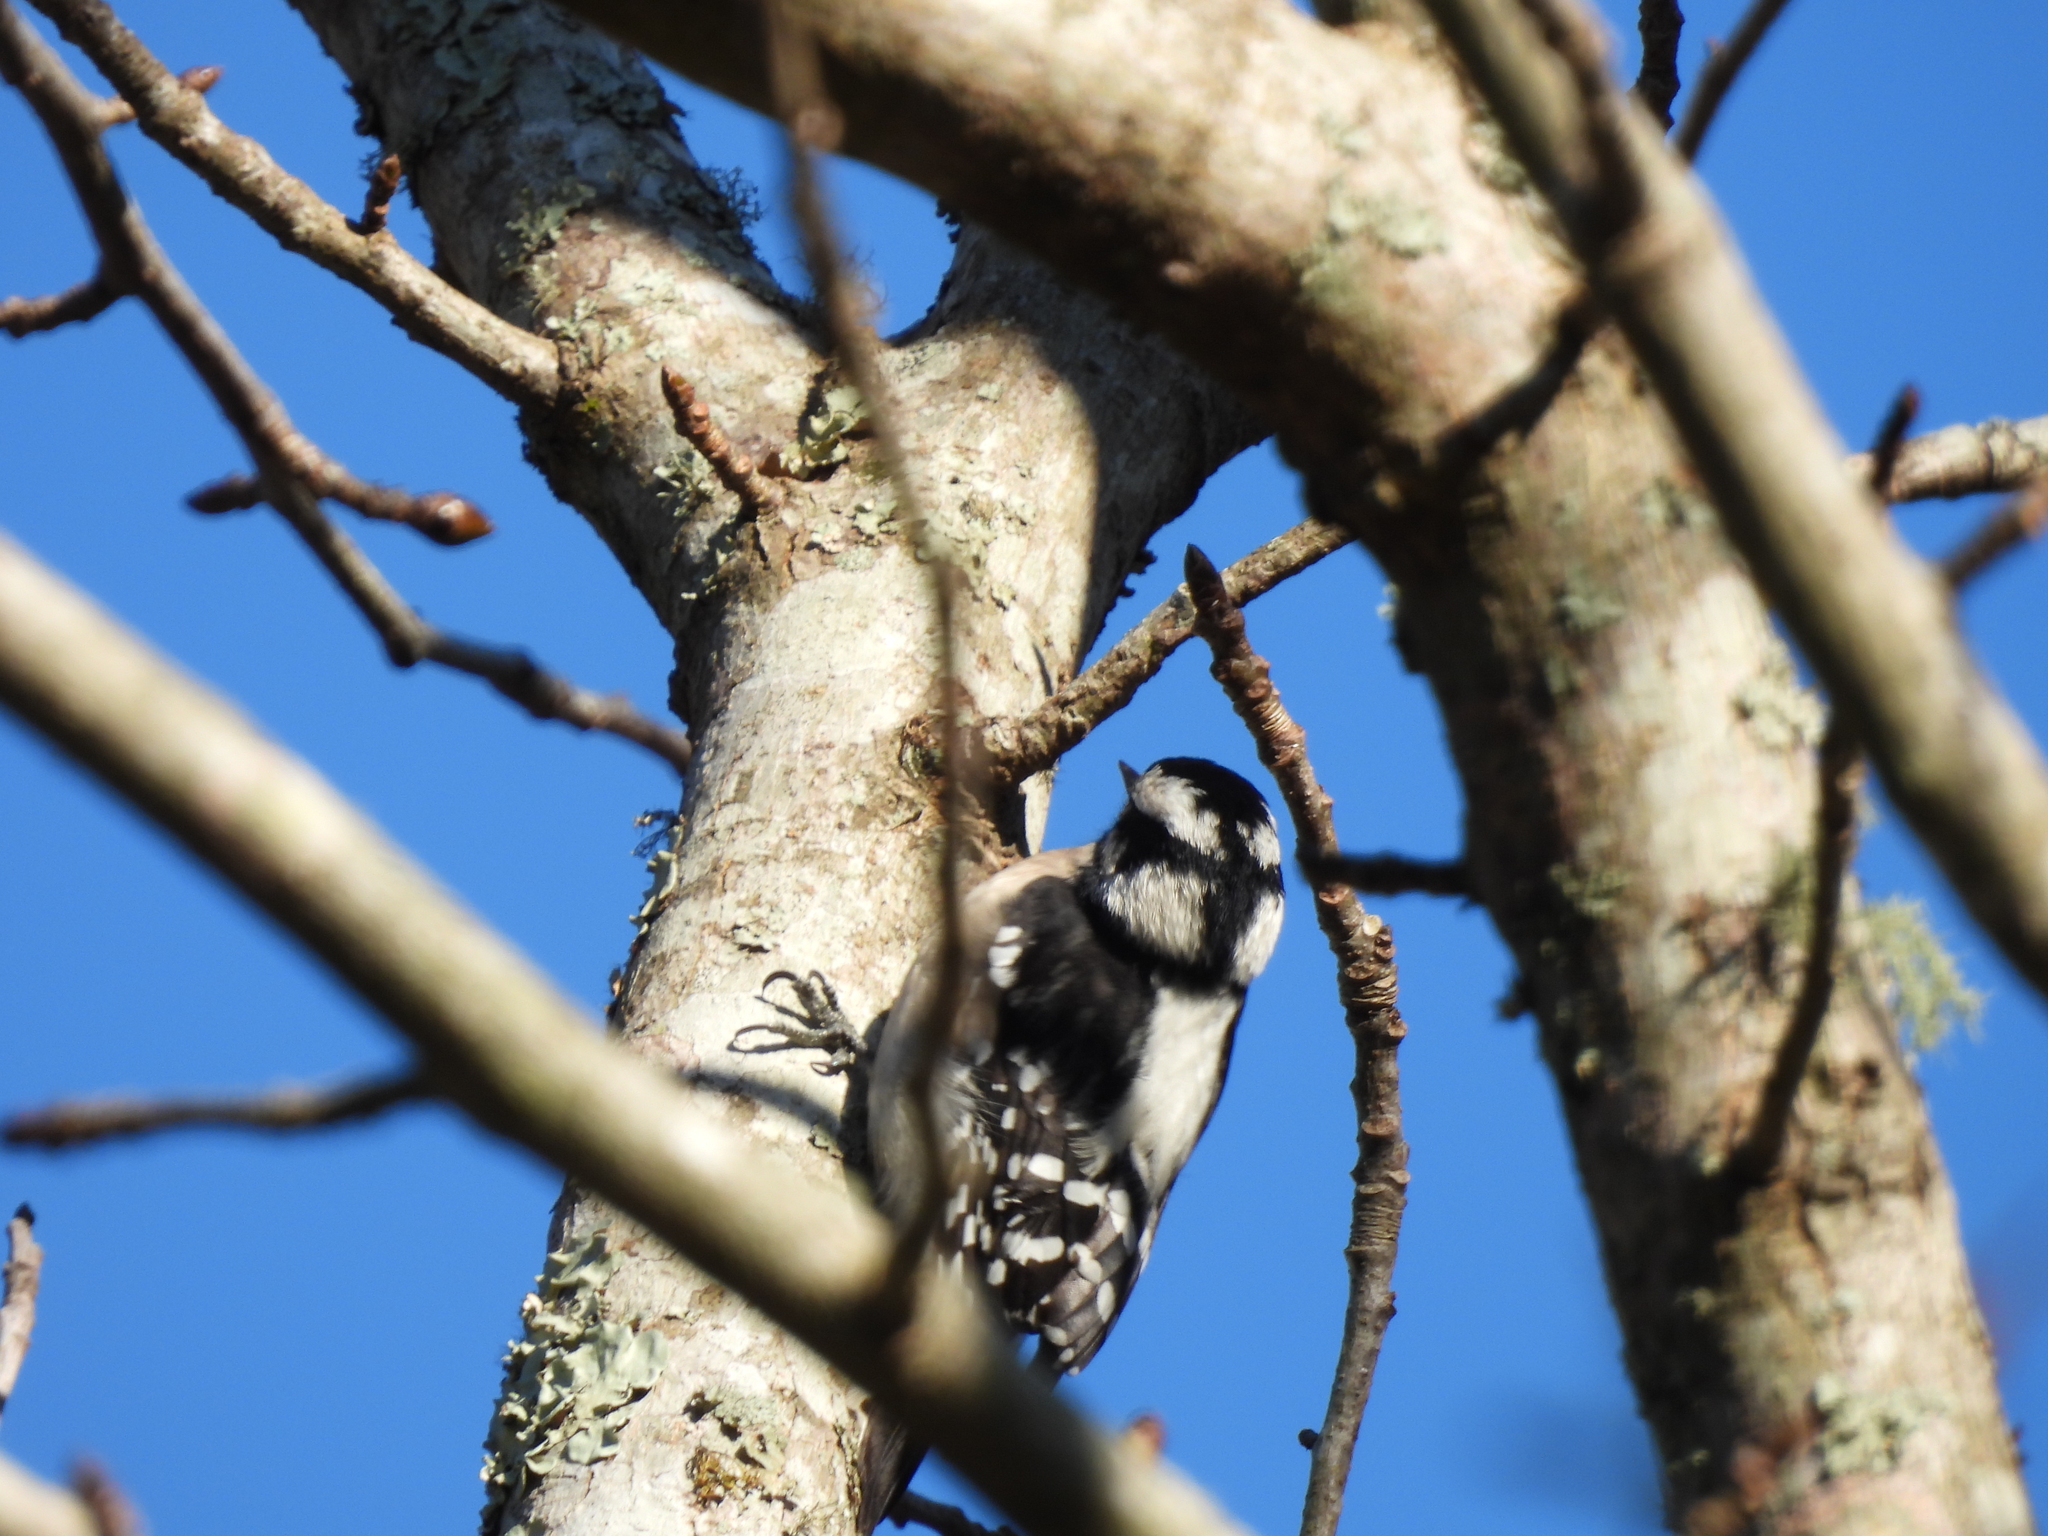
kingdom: Animalia
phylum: Chordata
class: Aves
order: Piciformes
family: Picidae
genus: Dryobates
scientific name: Dryobates pubescens
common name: Downy woodpecker
